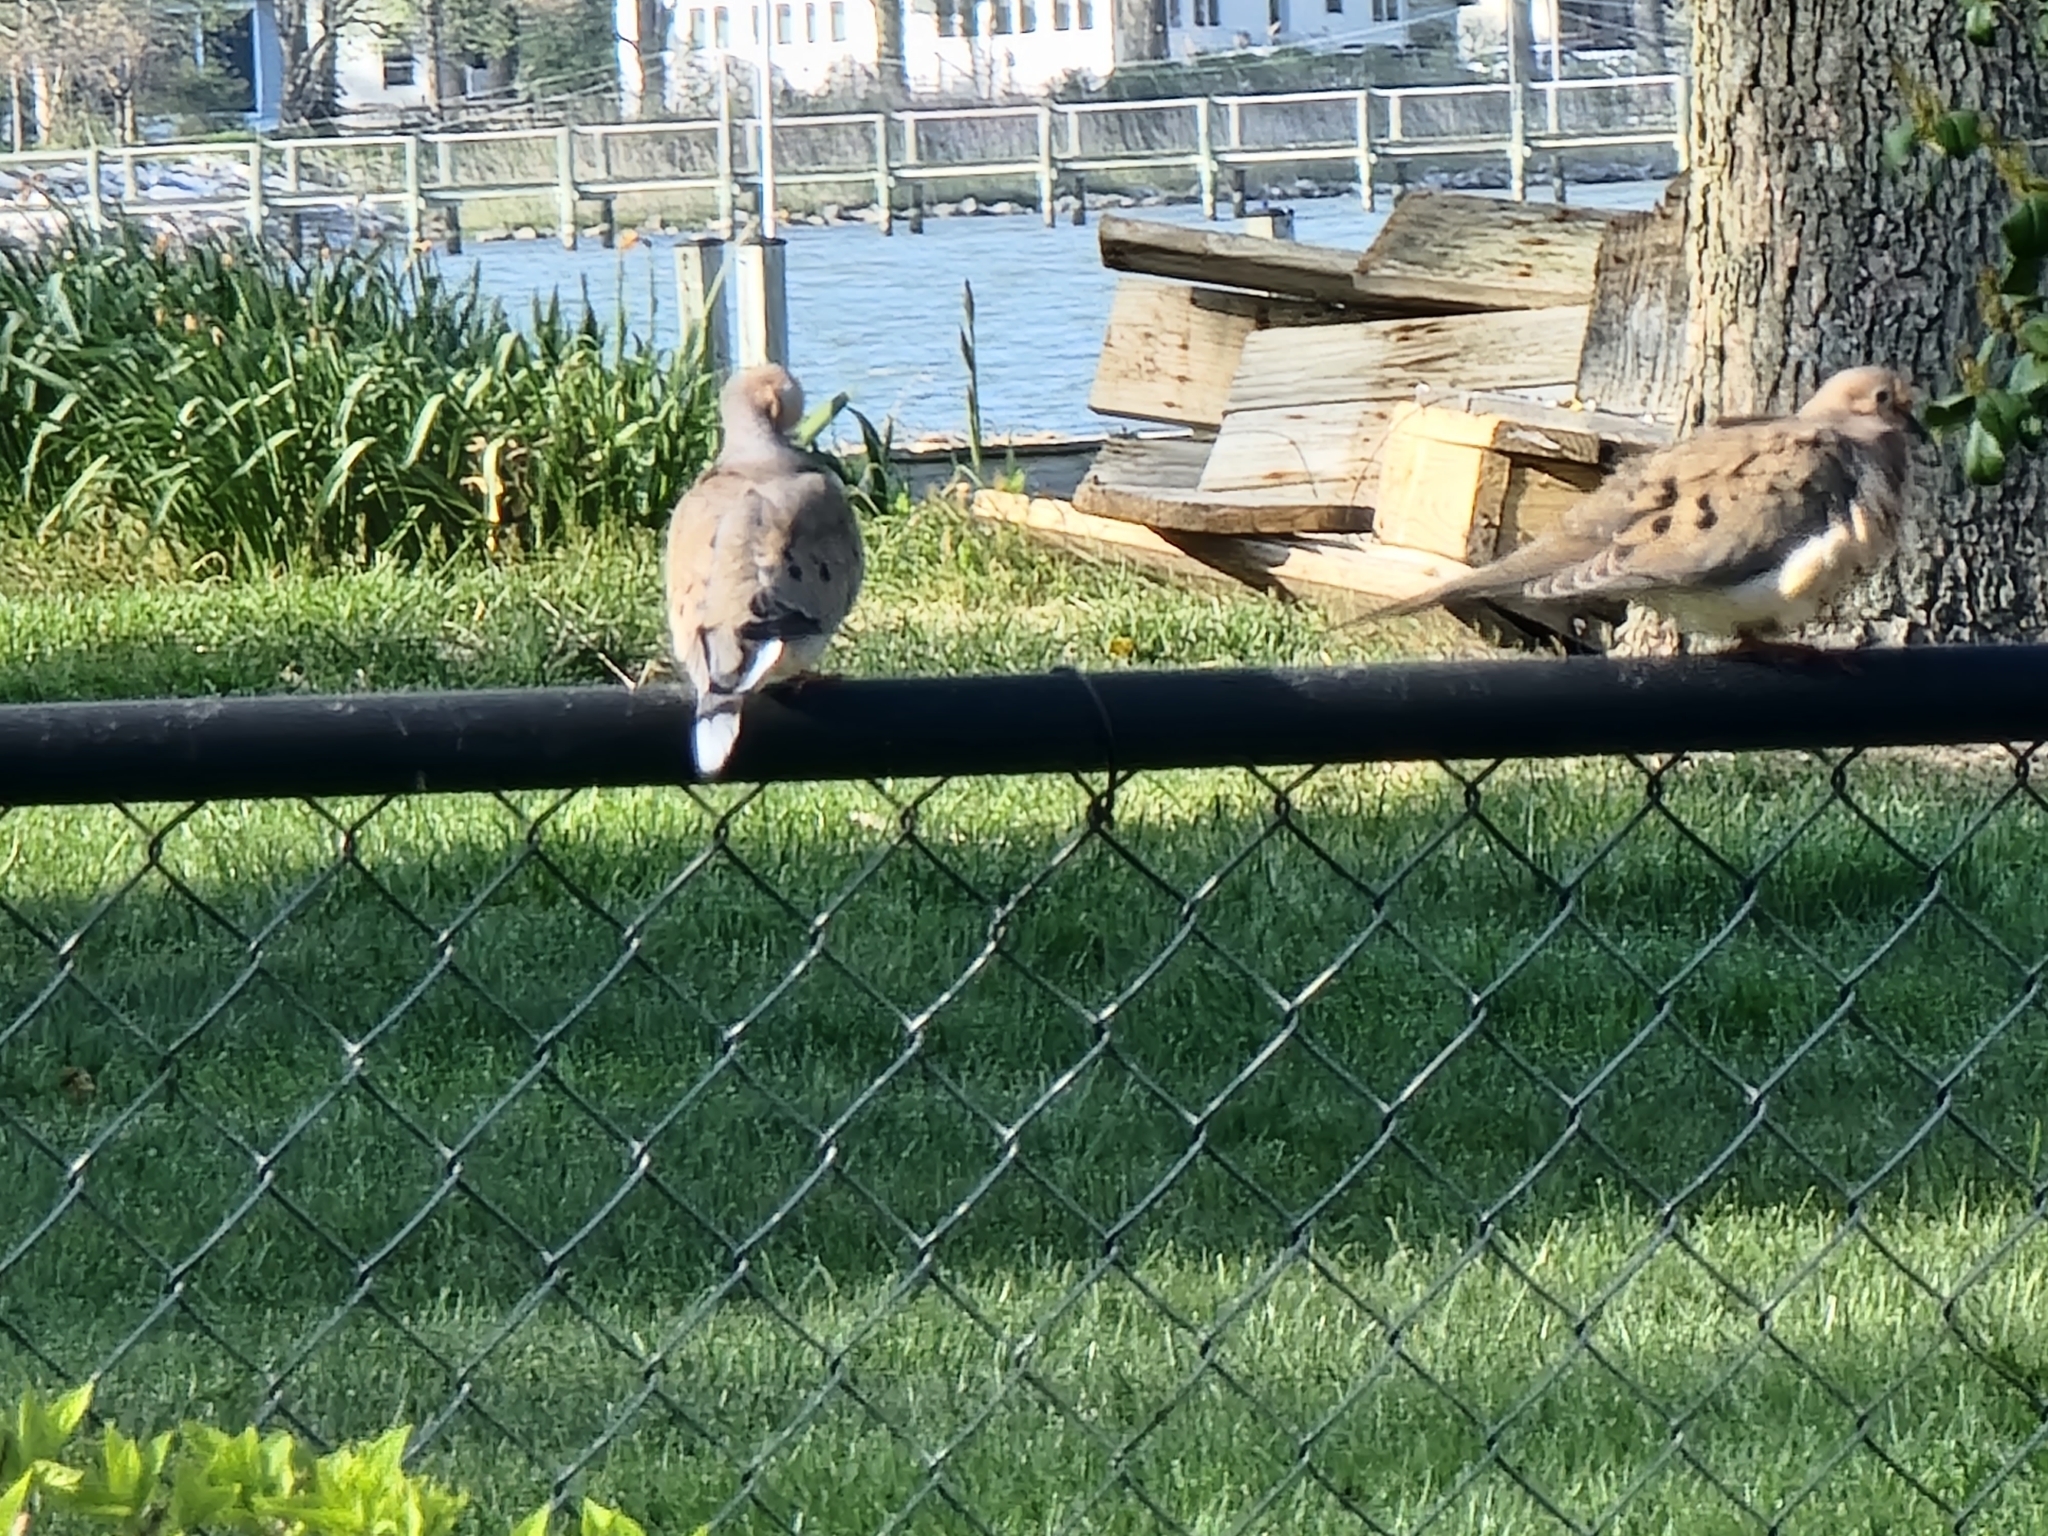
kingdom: Animalia
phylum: Chordata
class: Aves
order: Columbiformes
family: Columbidae
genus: Zenaida
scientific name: Zenaida macroura
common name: Mourning dove
